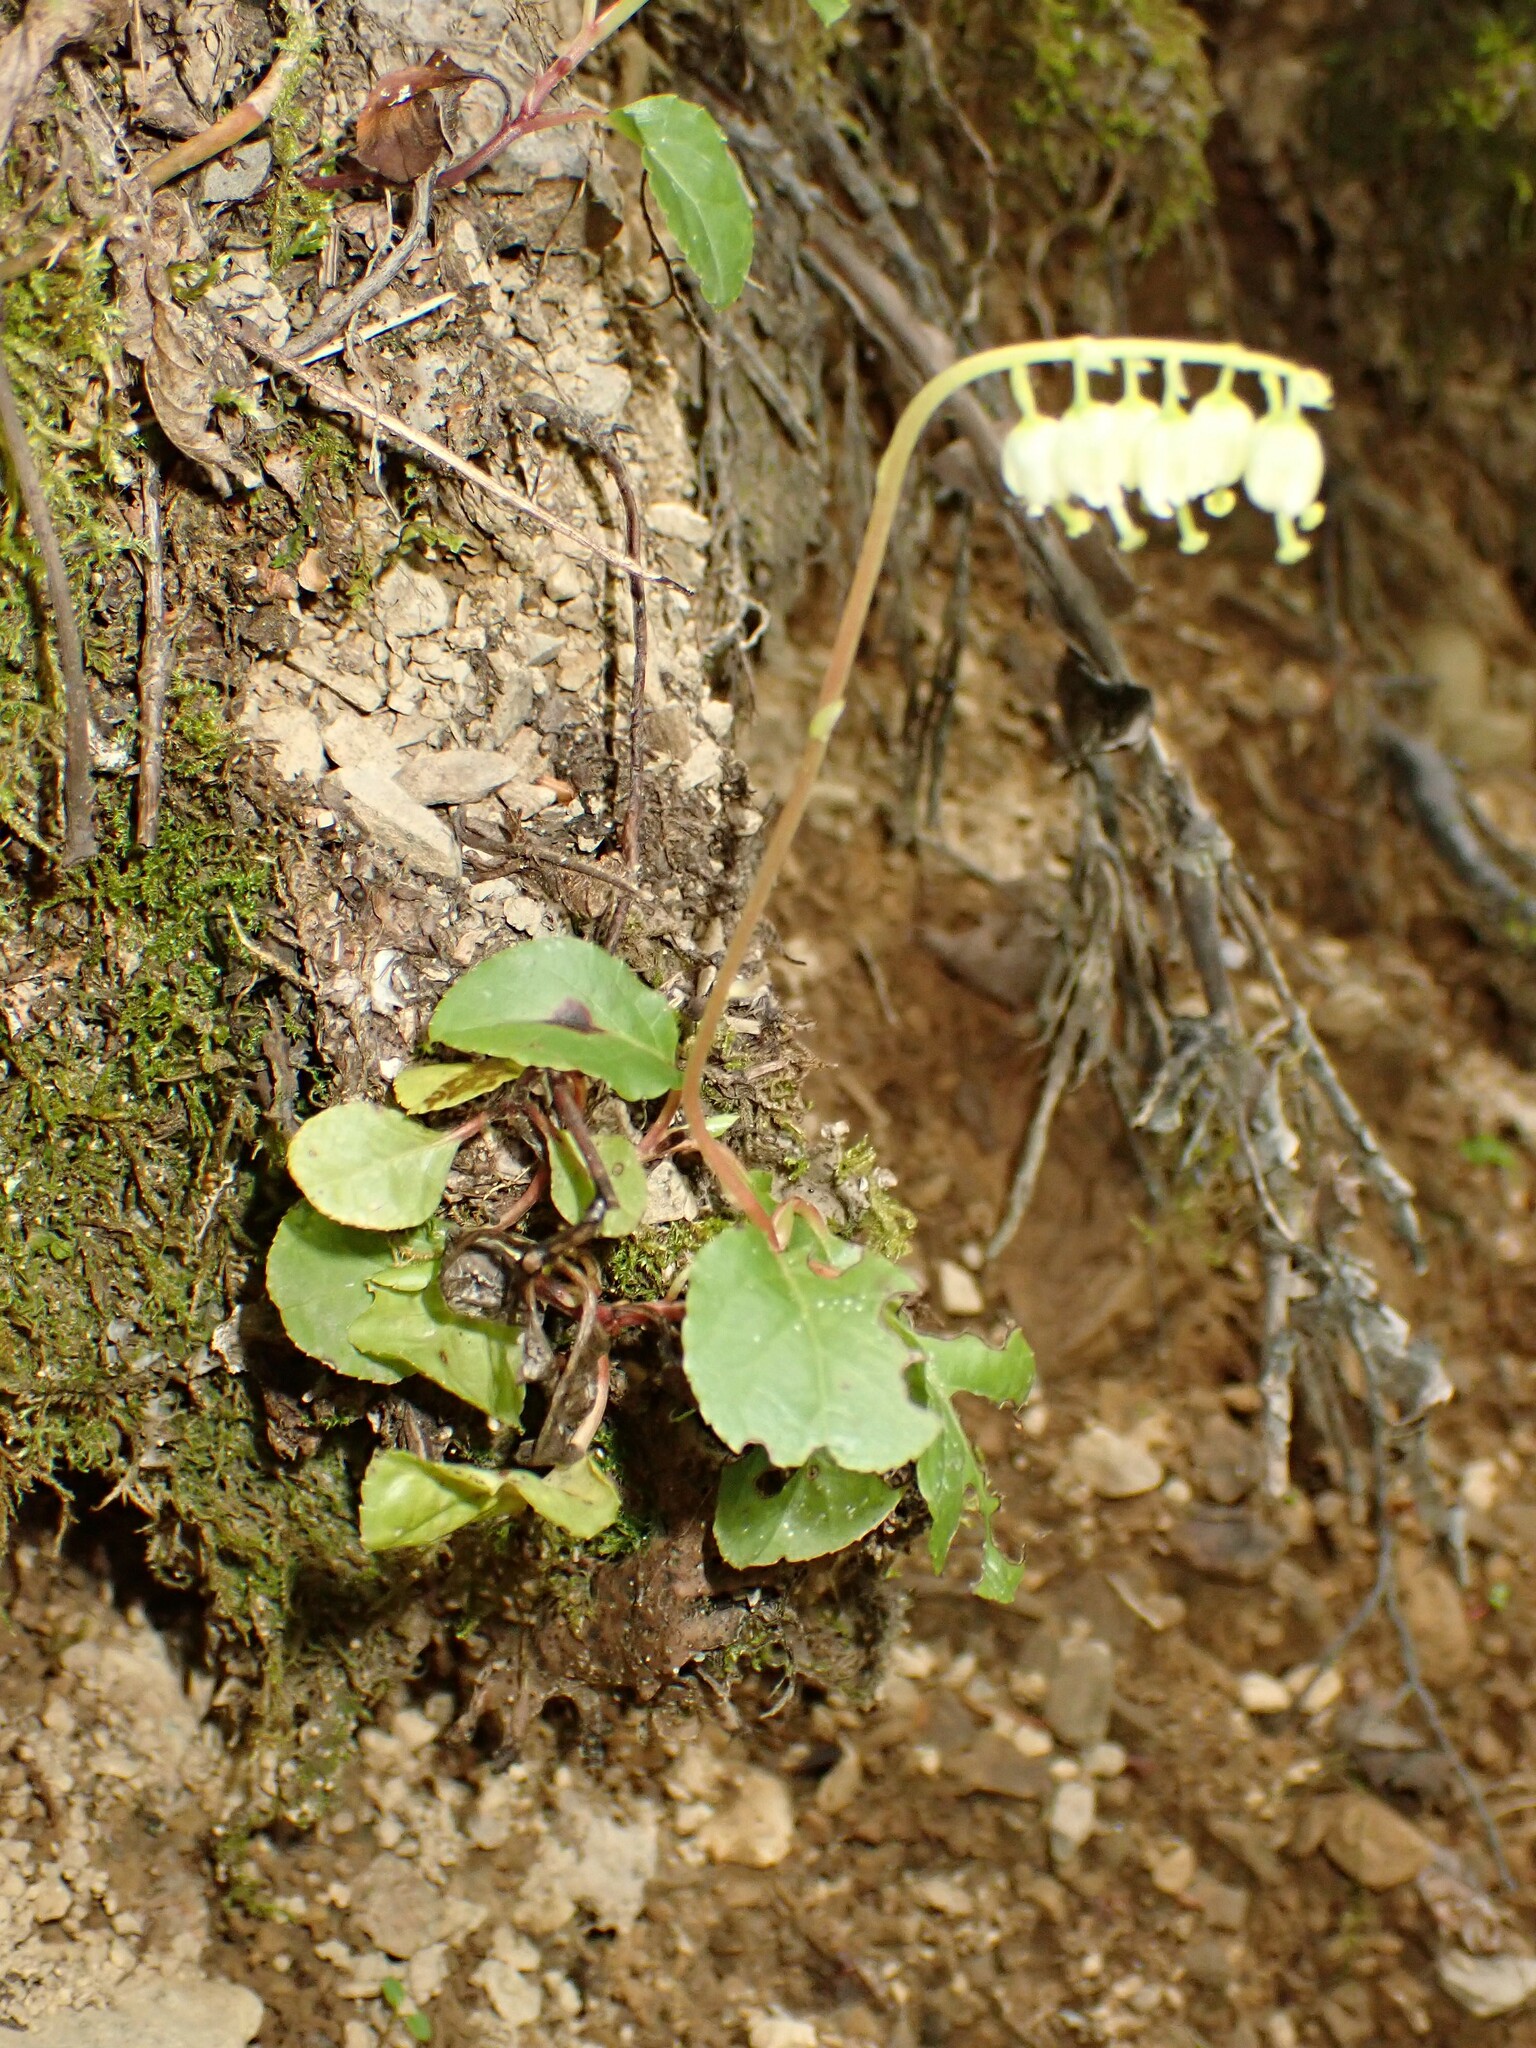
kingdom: Plantae
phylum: Tracheophyta
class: Magnoliopsida
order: Ericales
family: Ericaceae
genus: Orthilia
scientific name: Orthilia secunda
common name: One-sided orthilia
